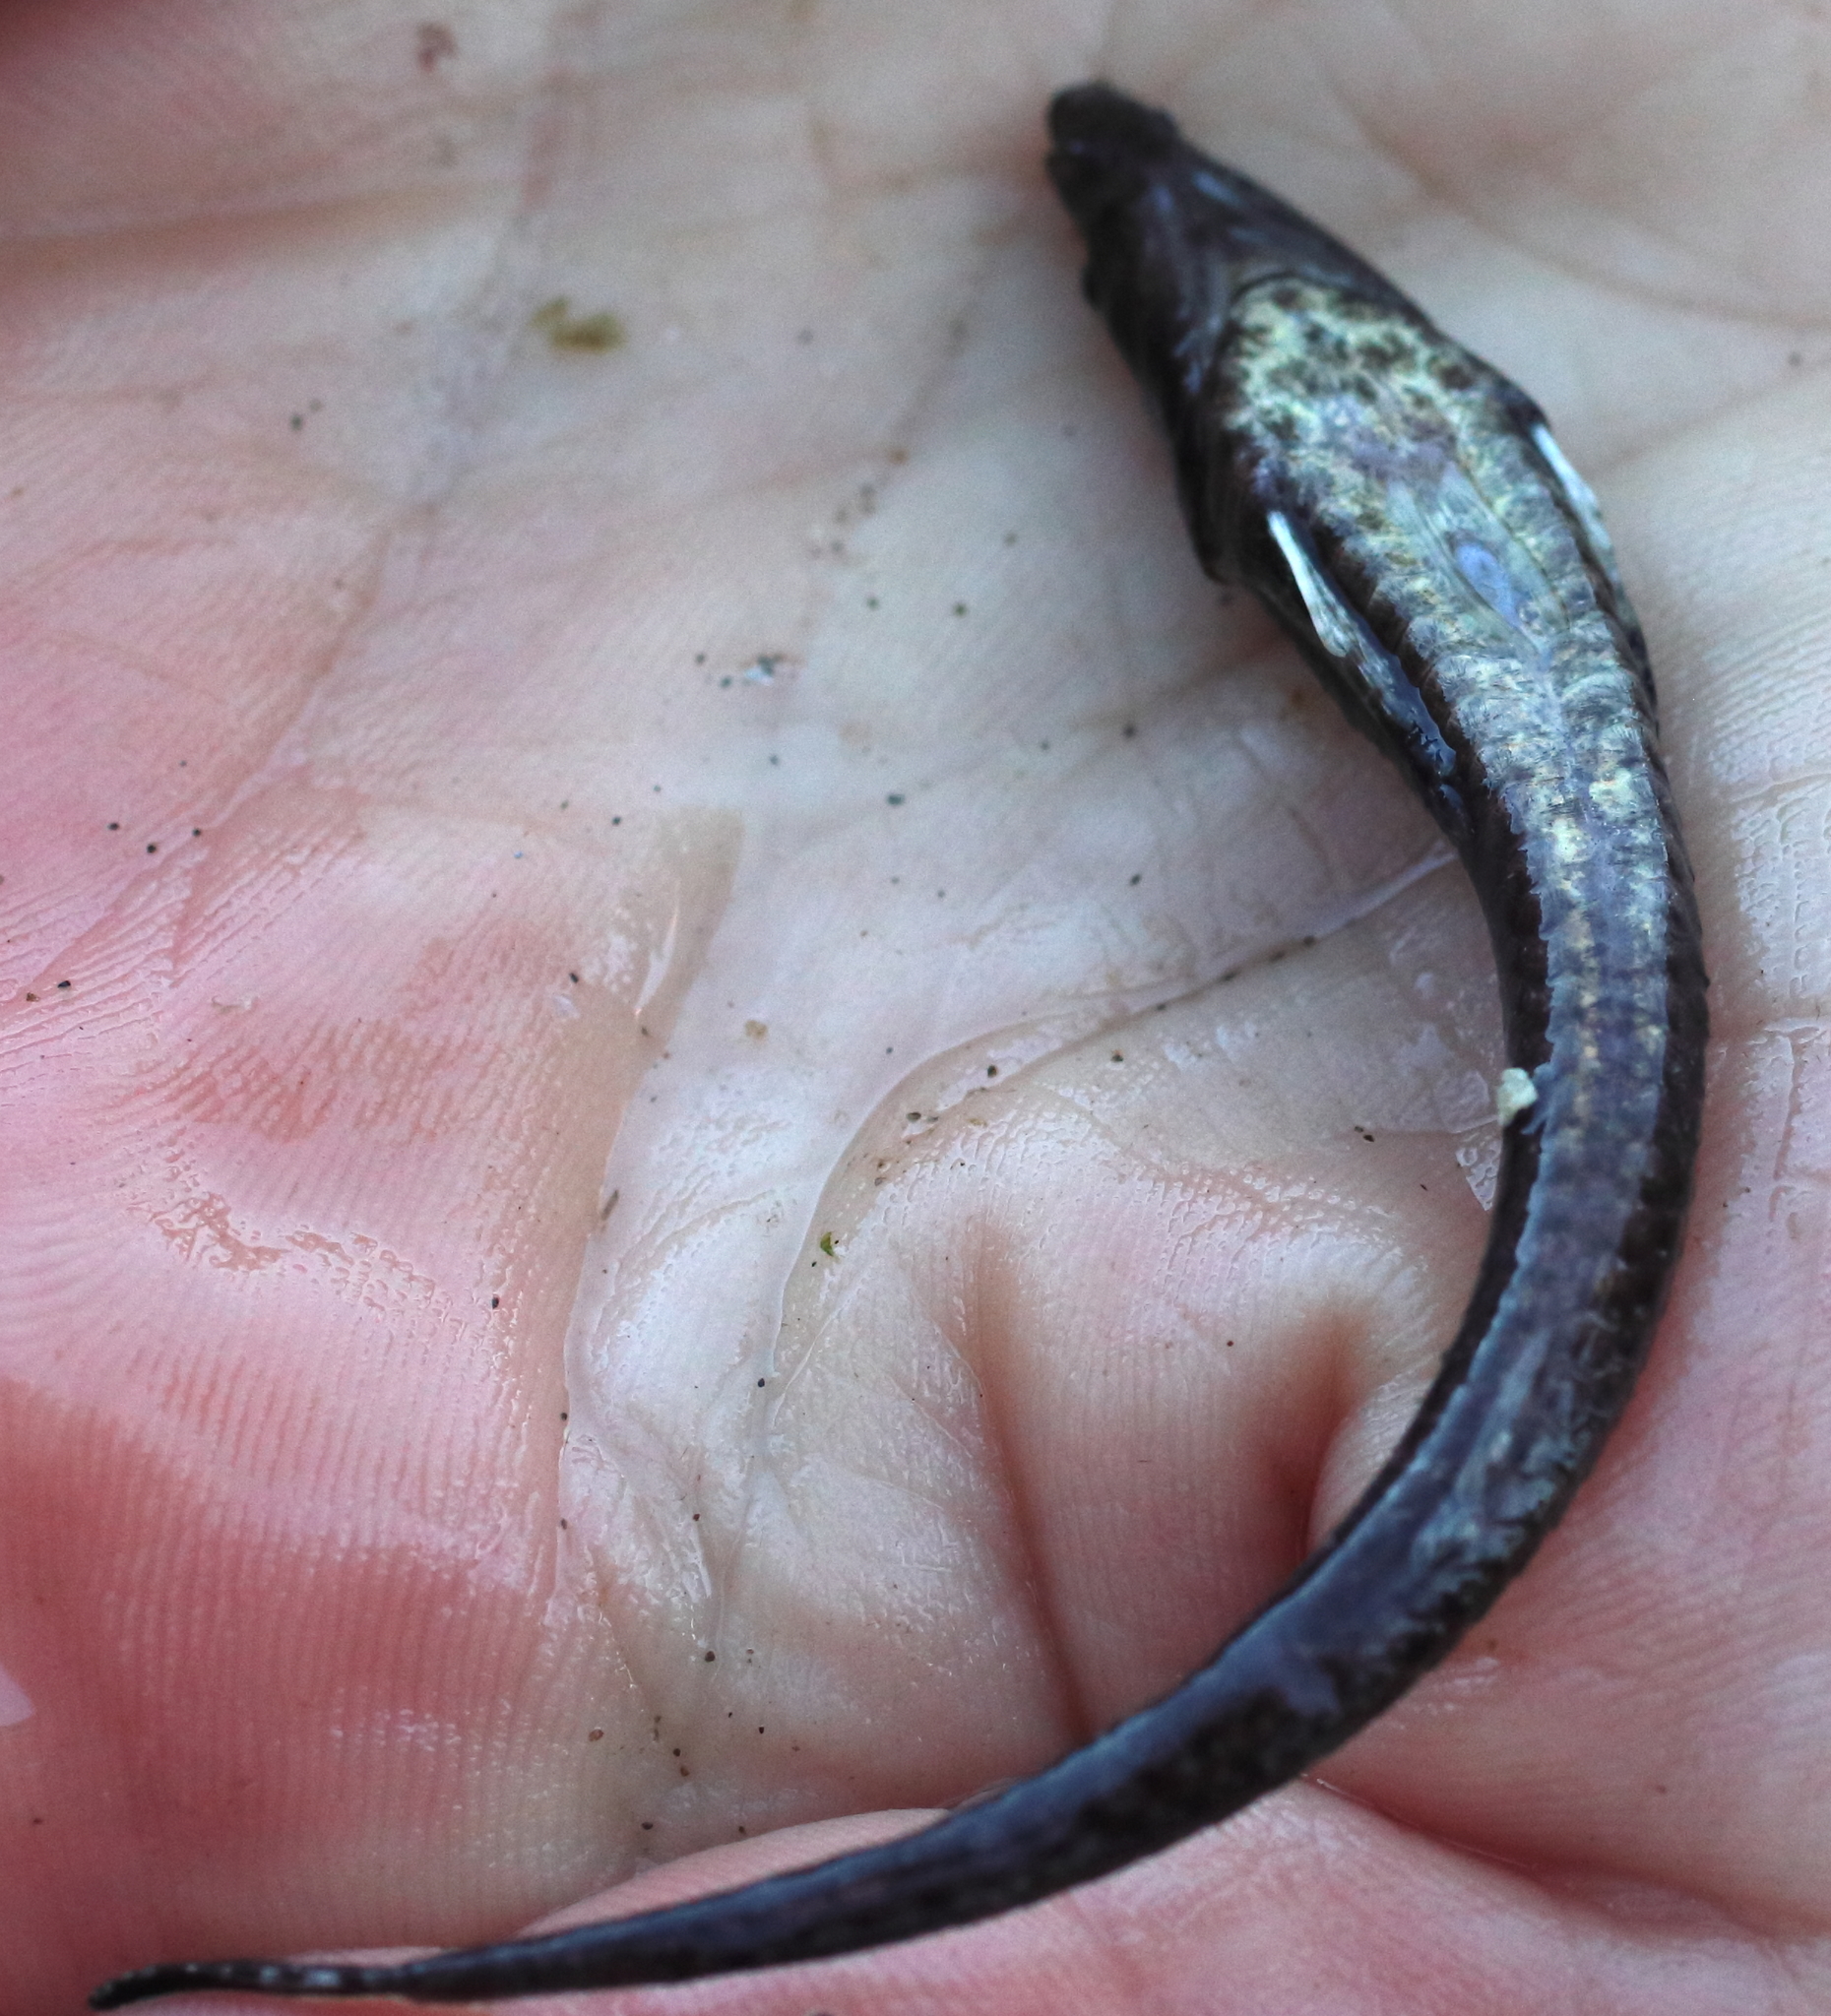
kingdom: Animalia
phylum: Chordata
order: Scorpaeniformes
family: Agonidae
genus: Anoplagonus
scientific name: Anoplagonus inermis
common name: Smooth alligatorfish
